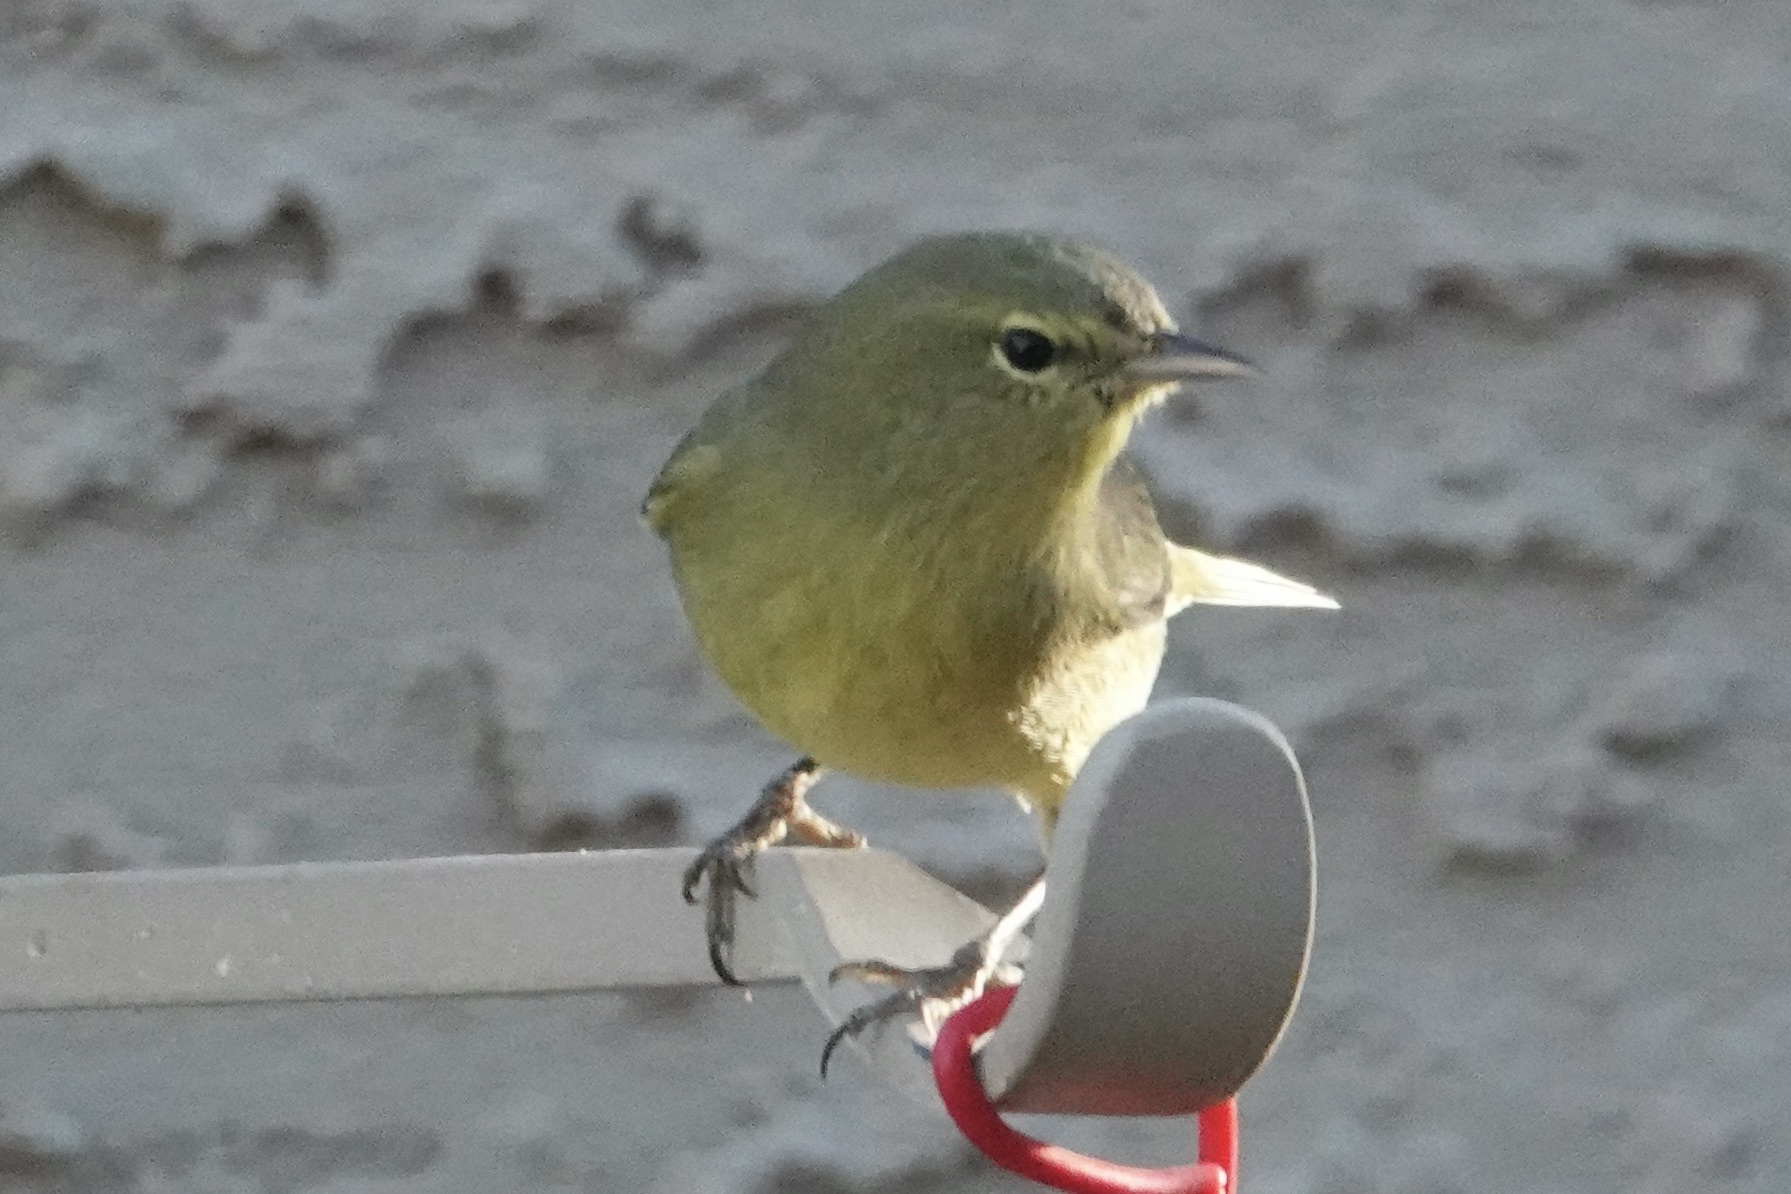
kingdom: Animalia
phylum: Chordata
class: Aves
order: Passeriformes
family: Parulidae
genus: Leiothlypis
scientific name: Leiothlypis celata
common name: Orange-crowned warbler
